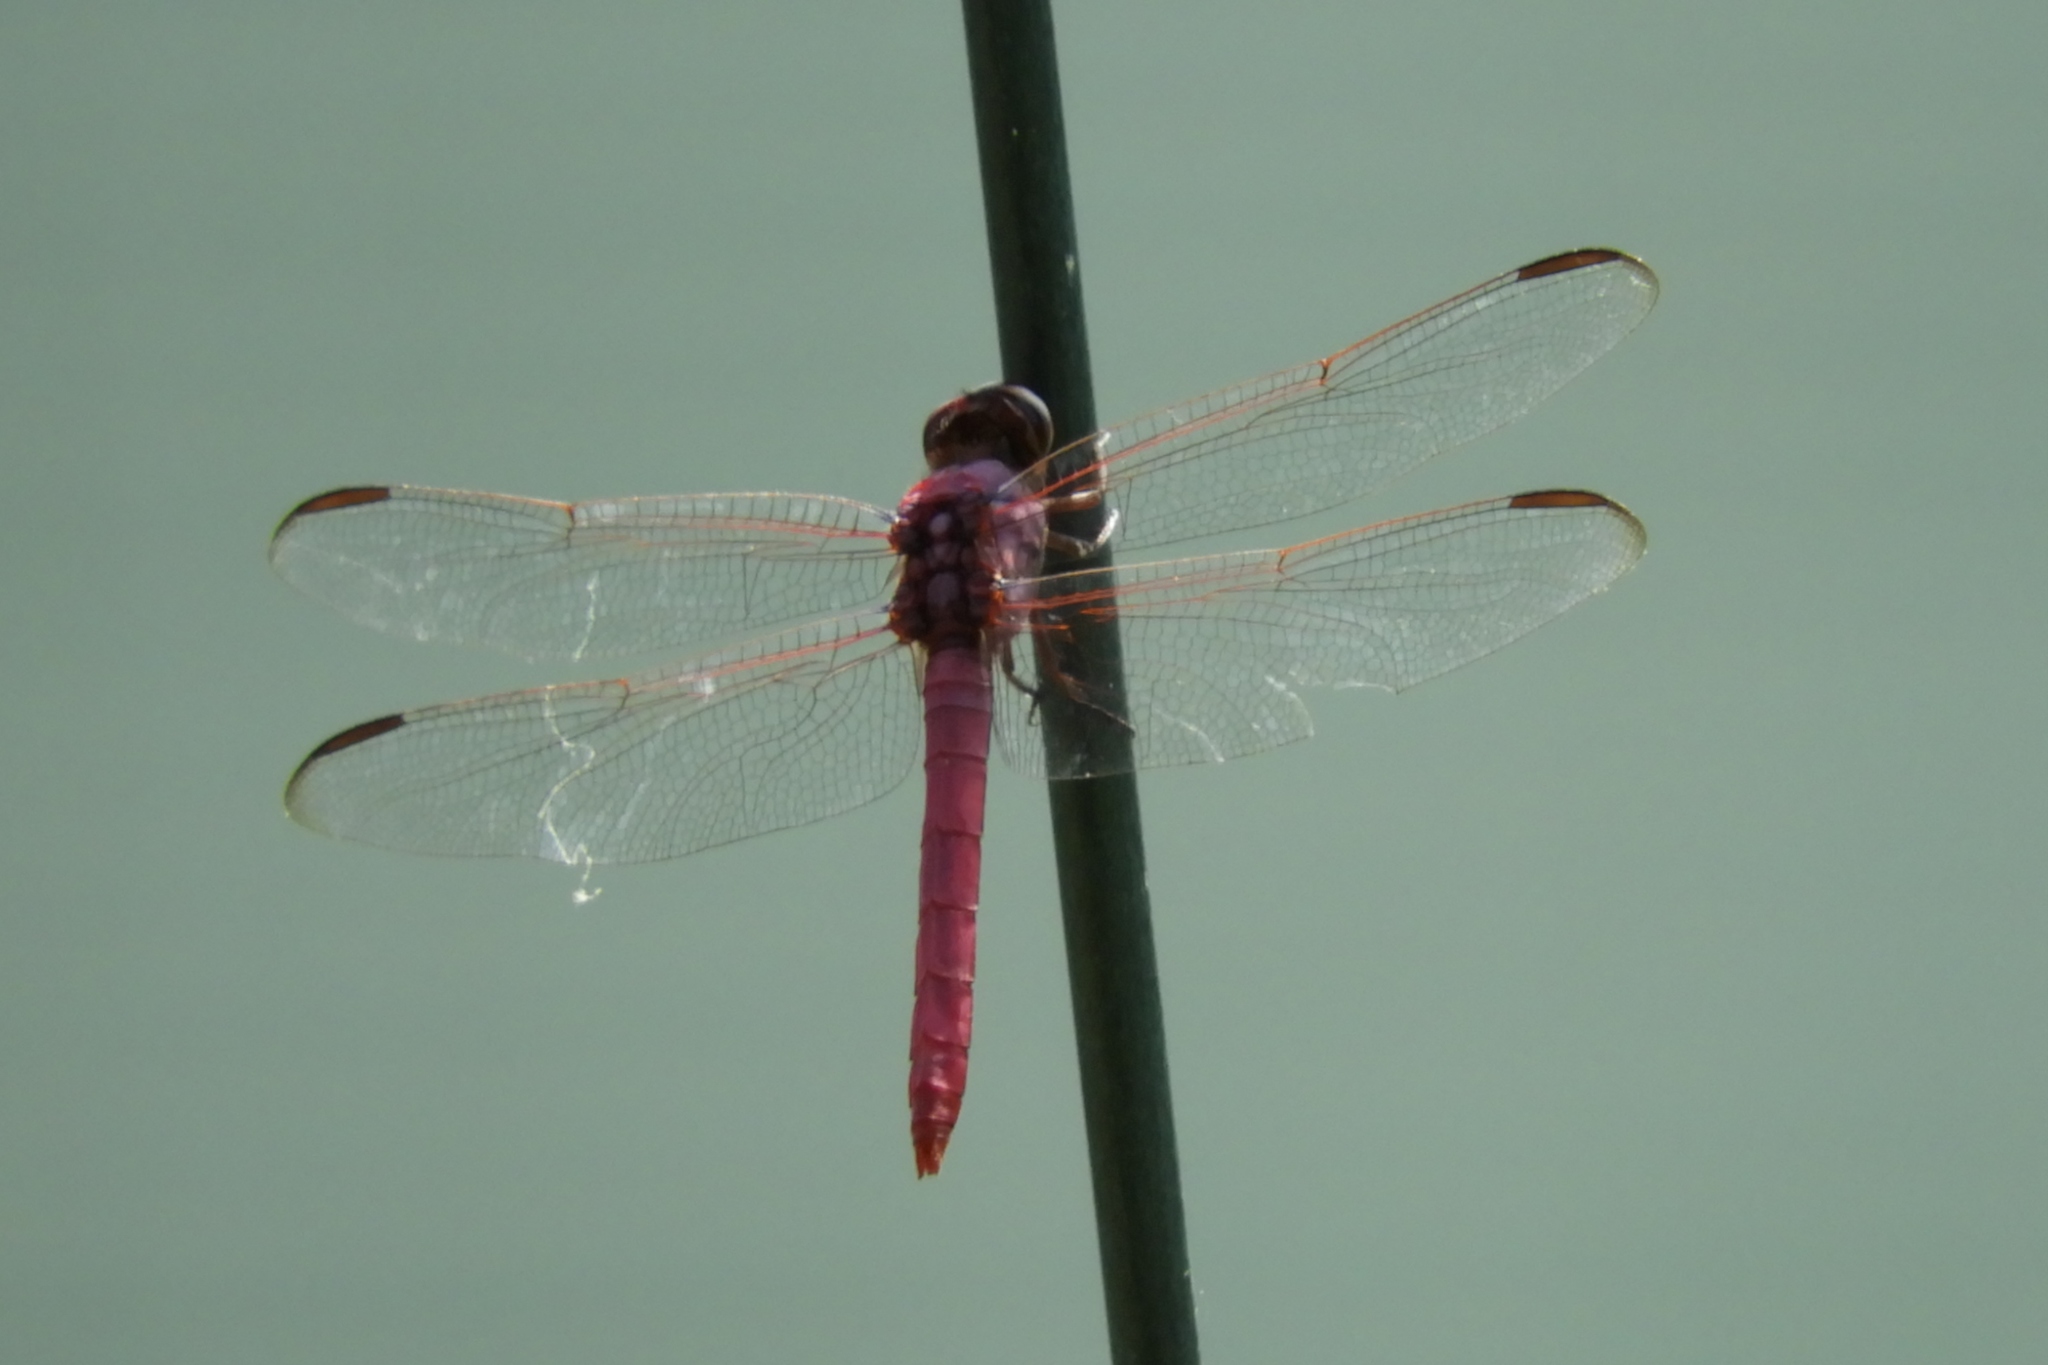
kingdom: Animalia
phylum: Arthropoda
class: Insecta
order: Odonata
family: Libellulidae
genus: Orthemis
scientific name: Orthemis ferruginea
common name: Roseate skimmer
